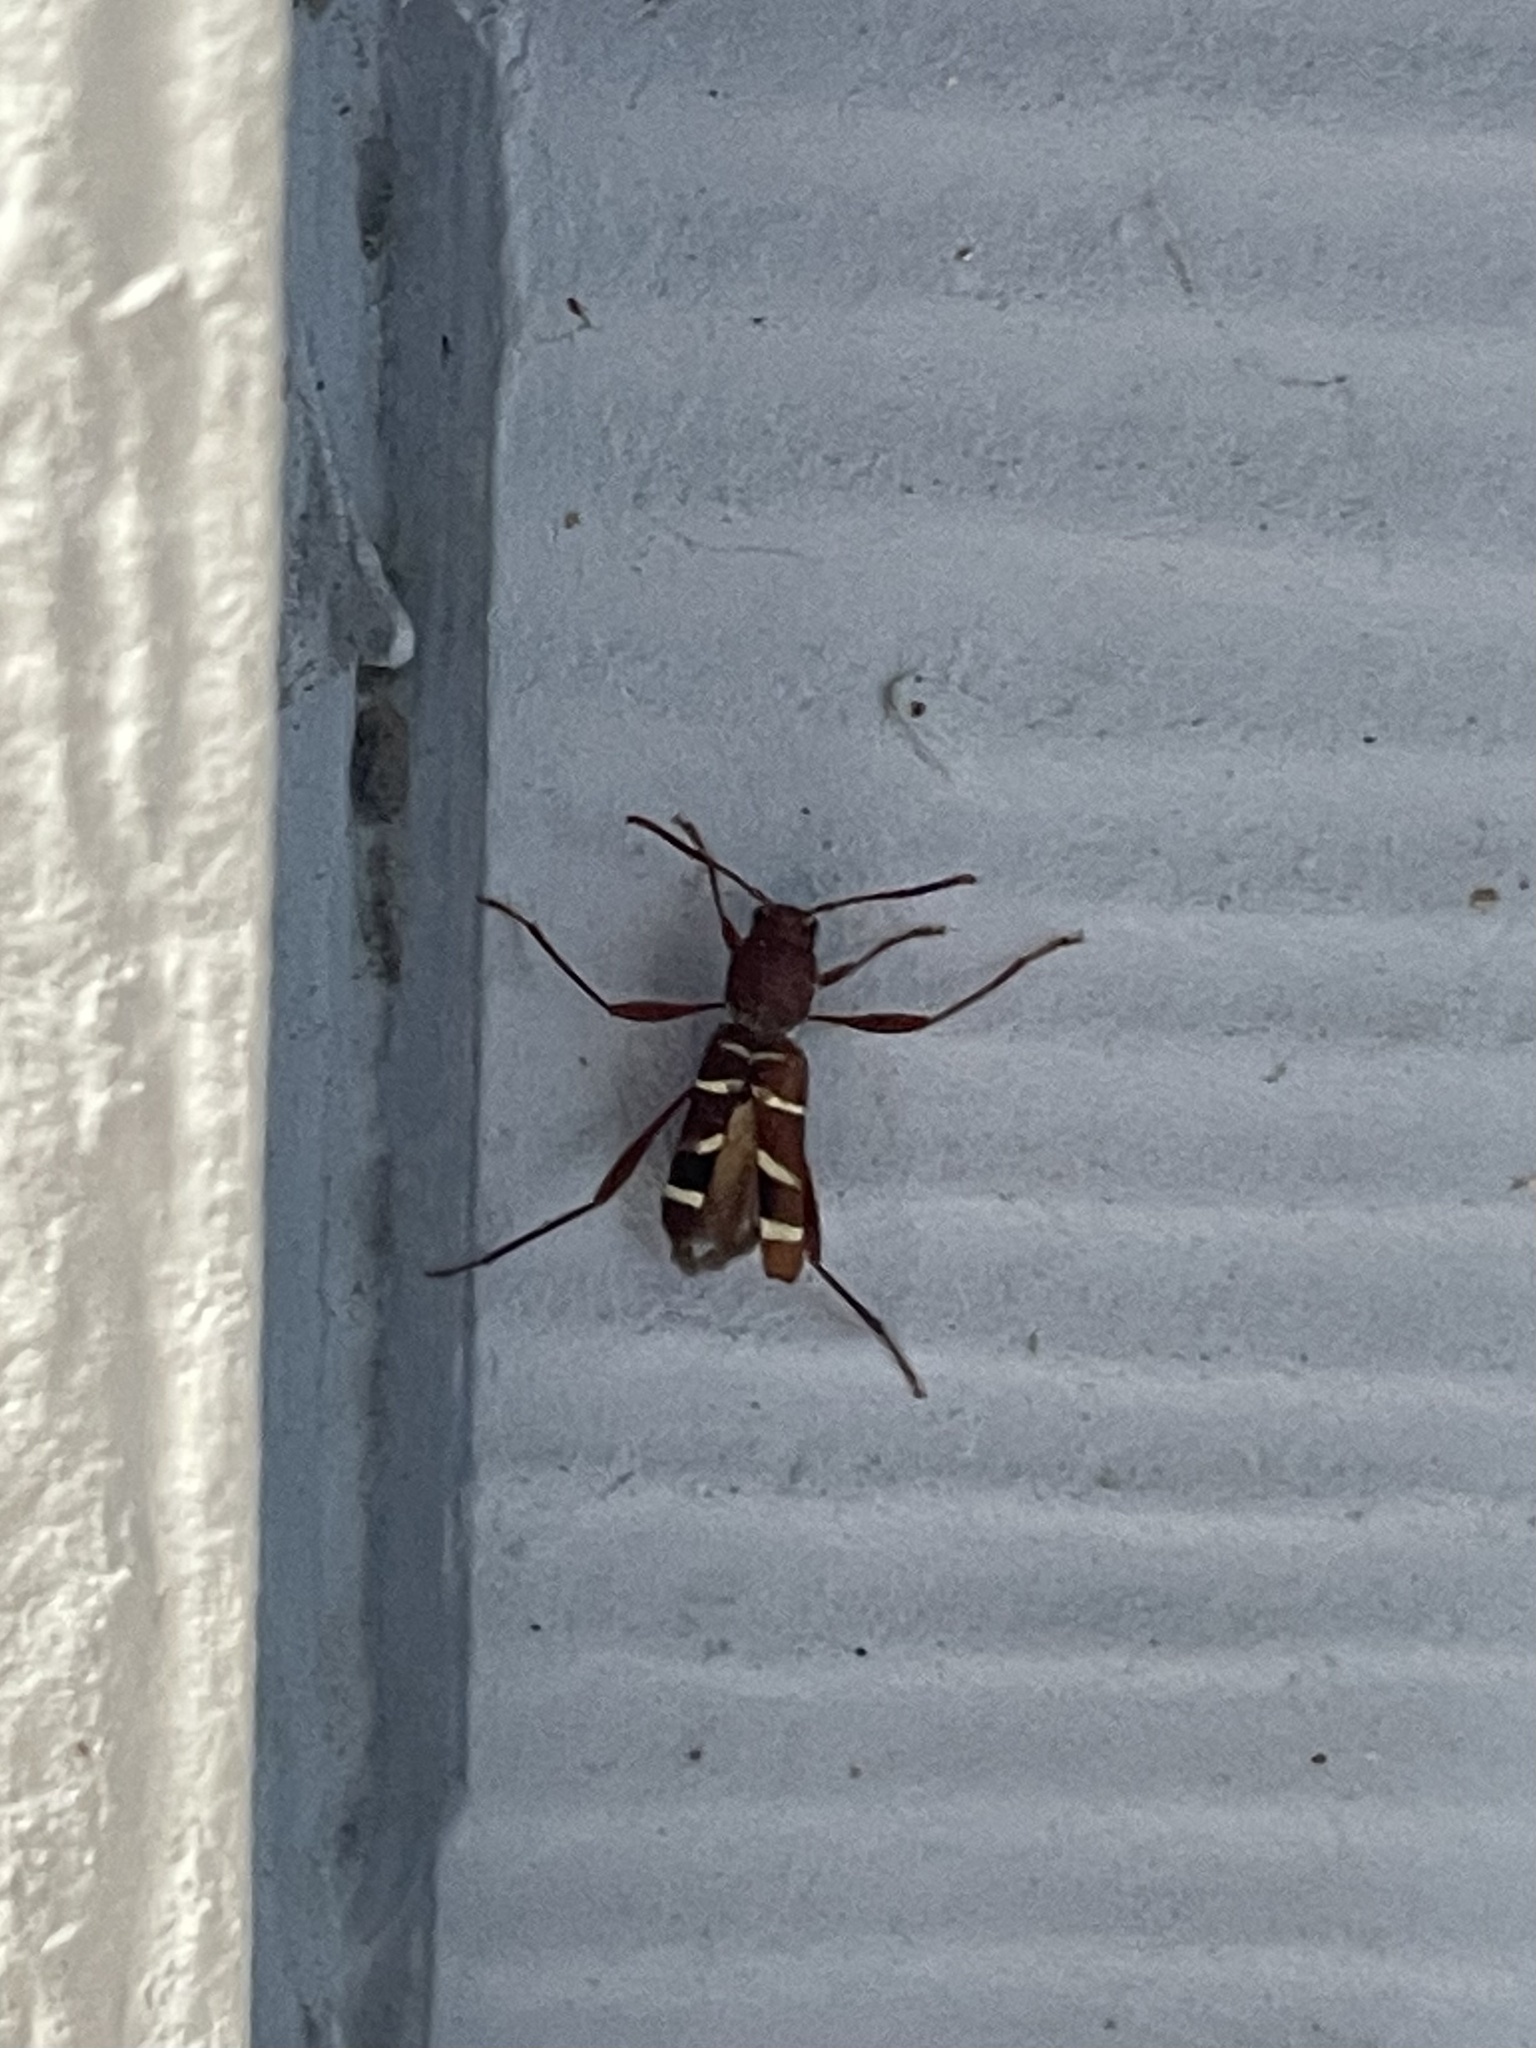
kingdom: Animalia
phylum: Arthropoda
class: Insecta
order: Coleoptera
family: Cerambycidae
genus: Neoclytus
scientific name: Neoclytus acuminatus
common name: Read-headed ash borer
